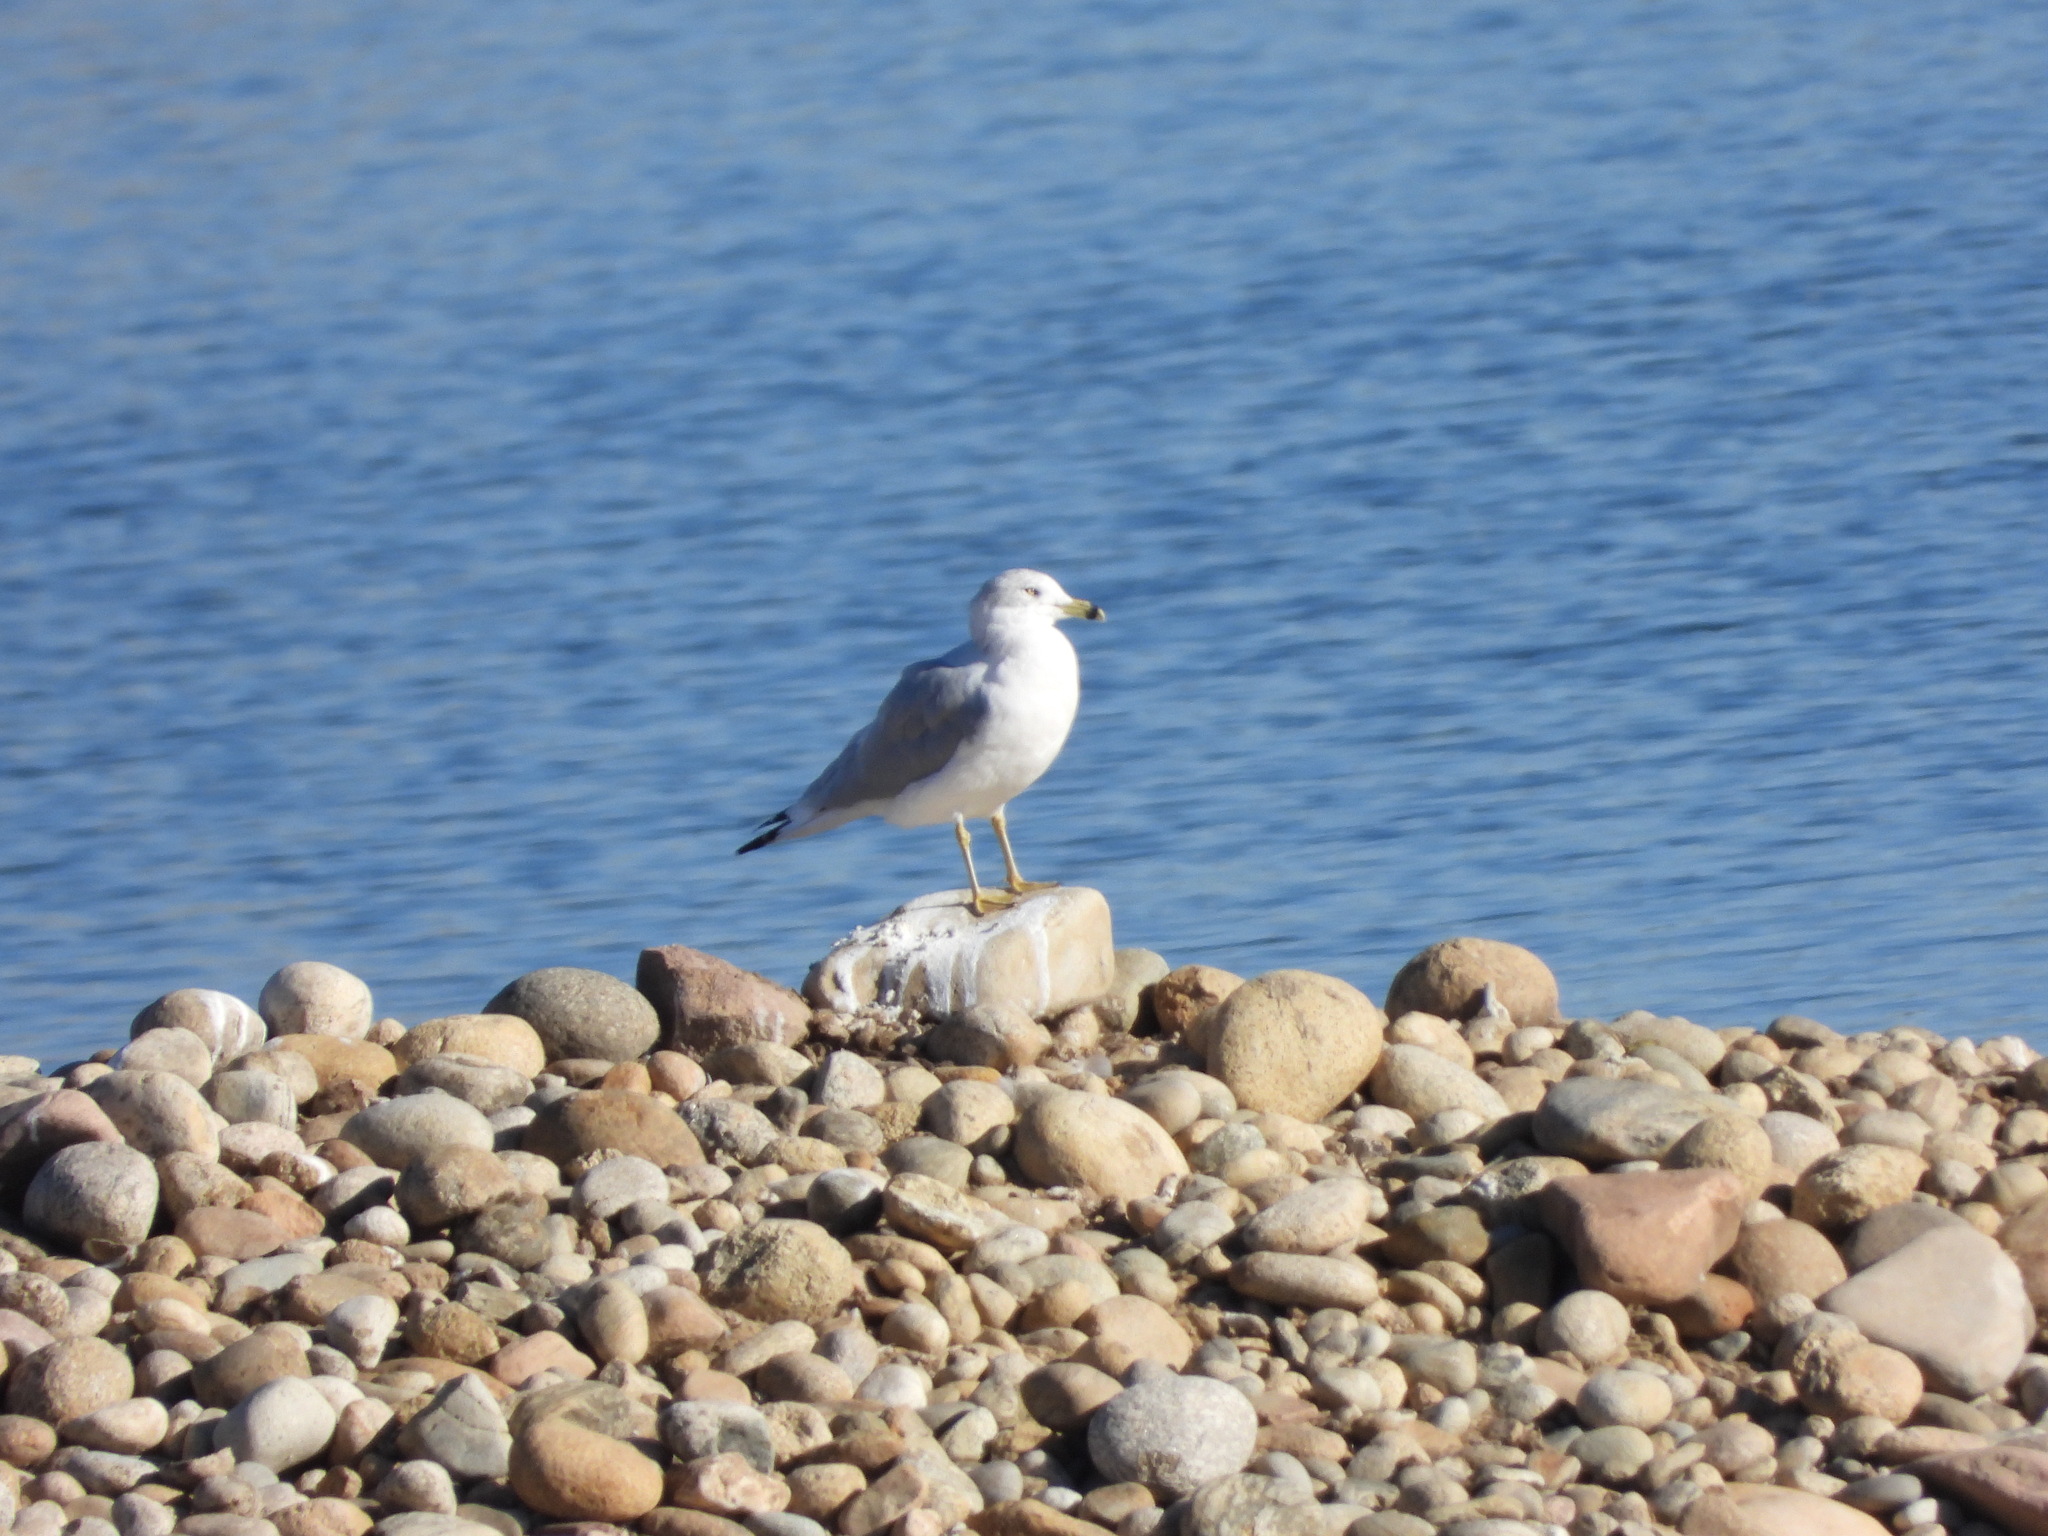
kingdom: Animalia
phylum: Chordata
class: Aves
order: Charadriiformes
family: Laridae
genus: Larus
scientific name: Larus delawarensis
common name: Ring-billed gull
